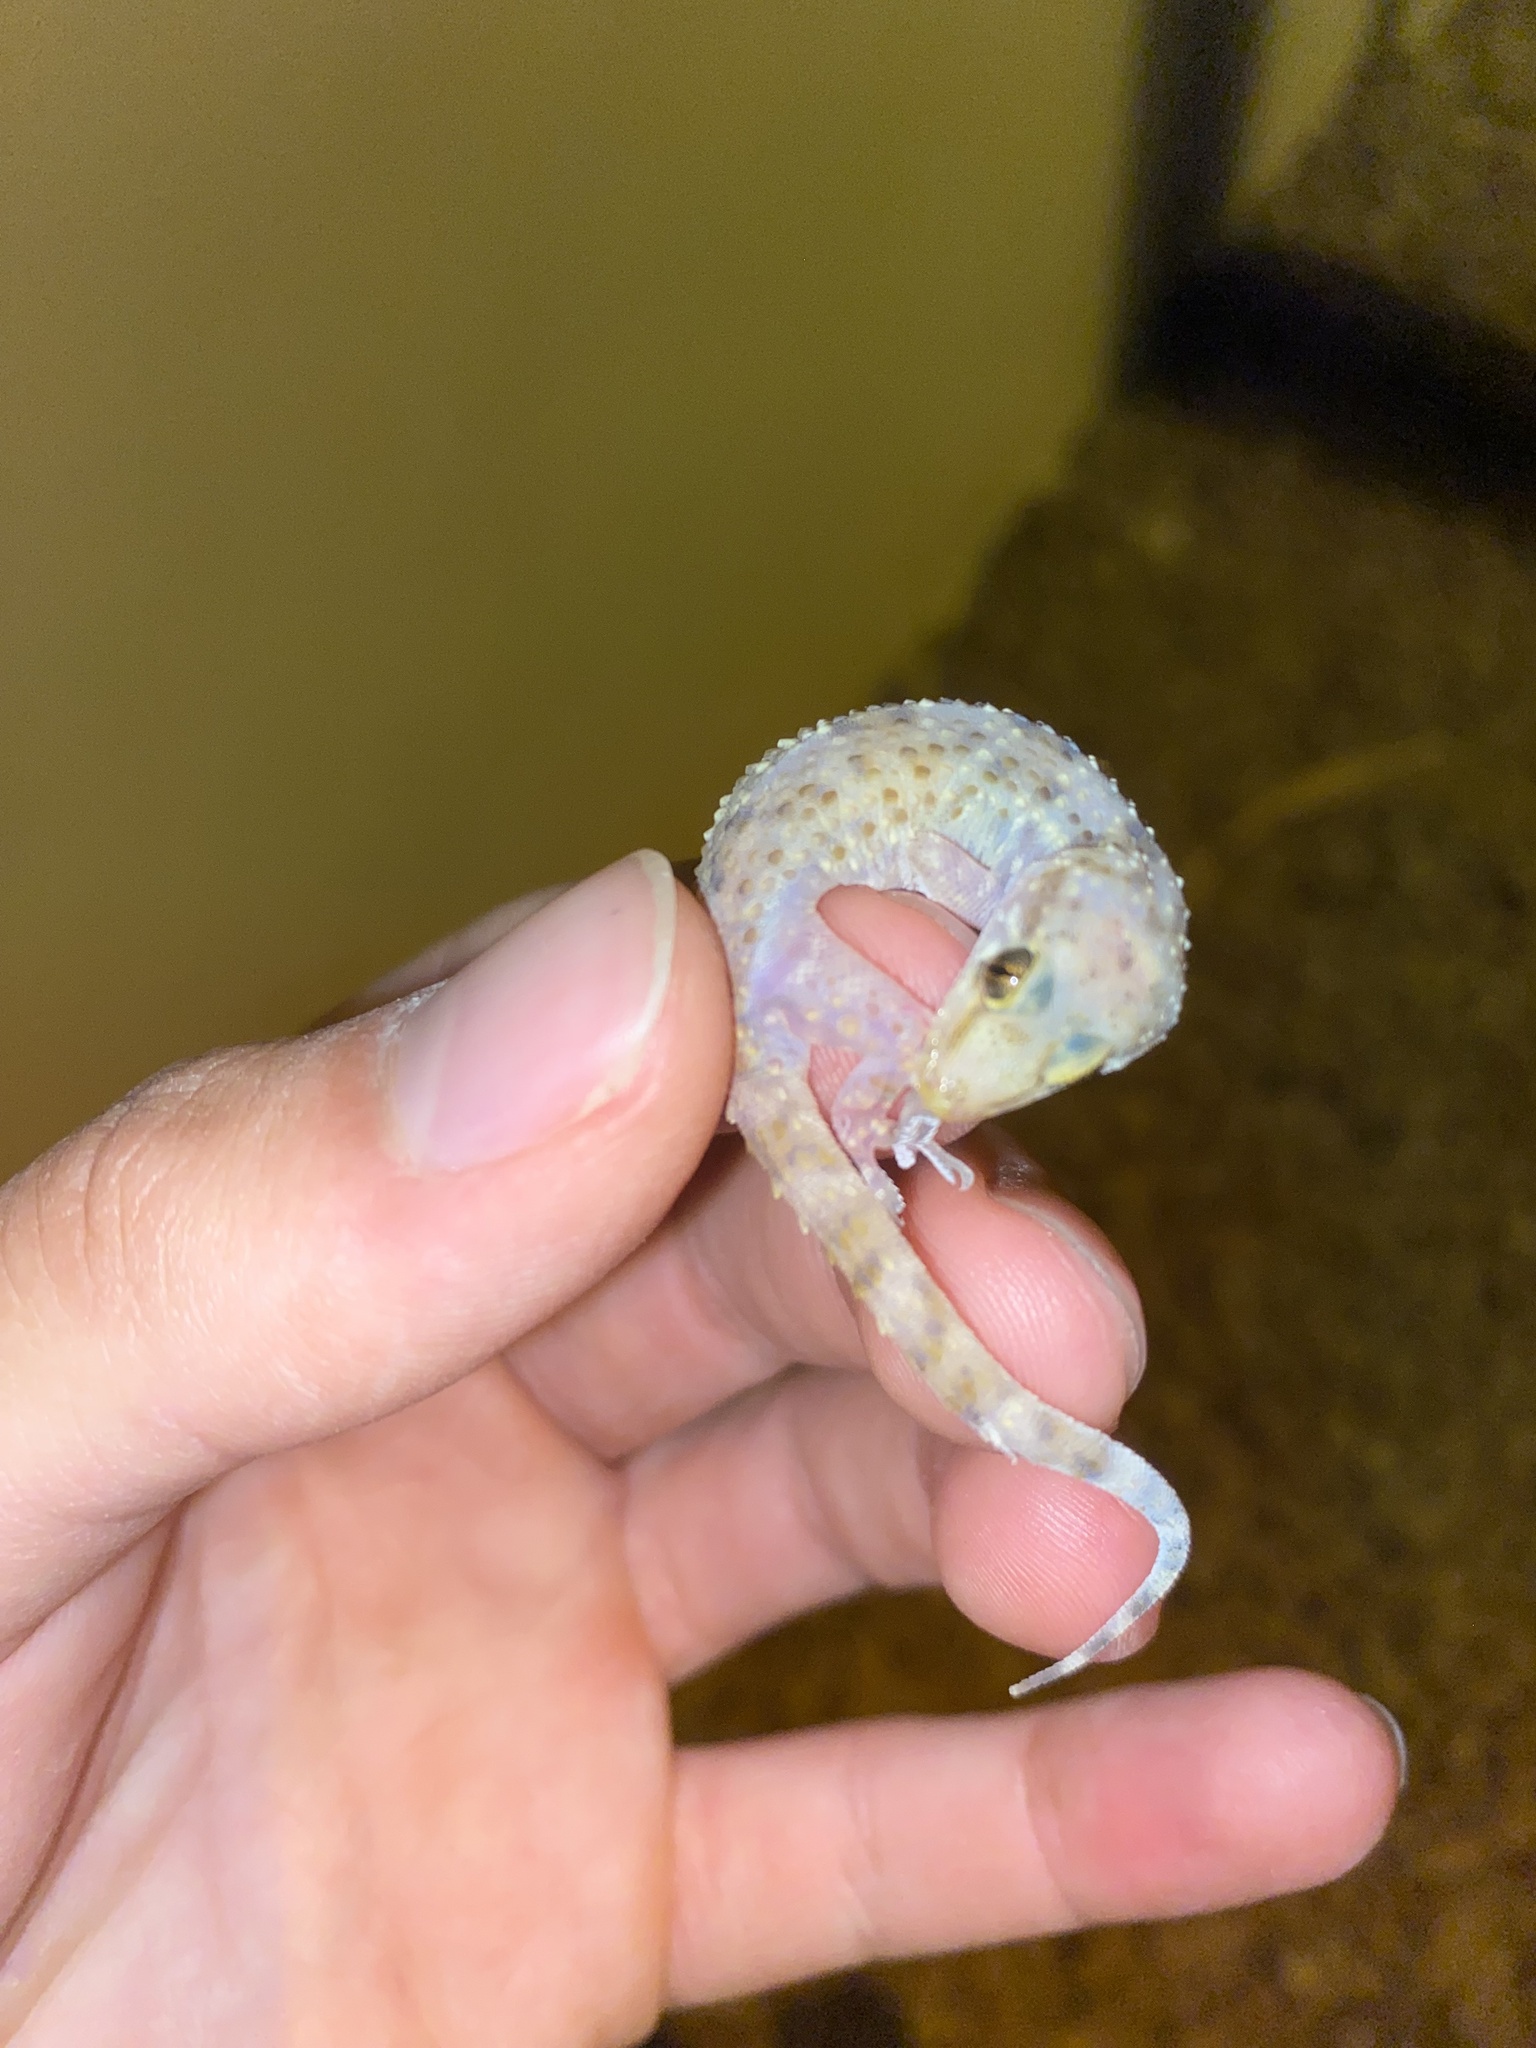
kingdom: Animalia
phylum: Chordata
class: Squamata
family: Gekkonidae
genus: Hemidactylus
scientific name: Hemidactylus turcicus
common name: Turkish gecko
